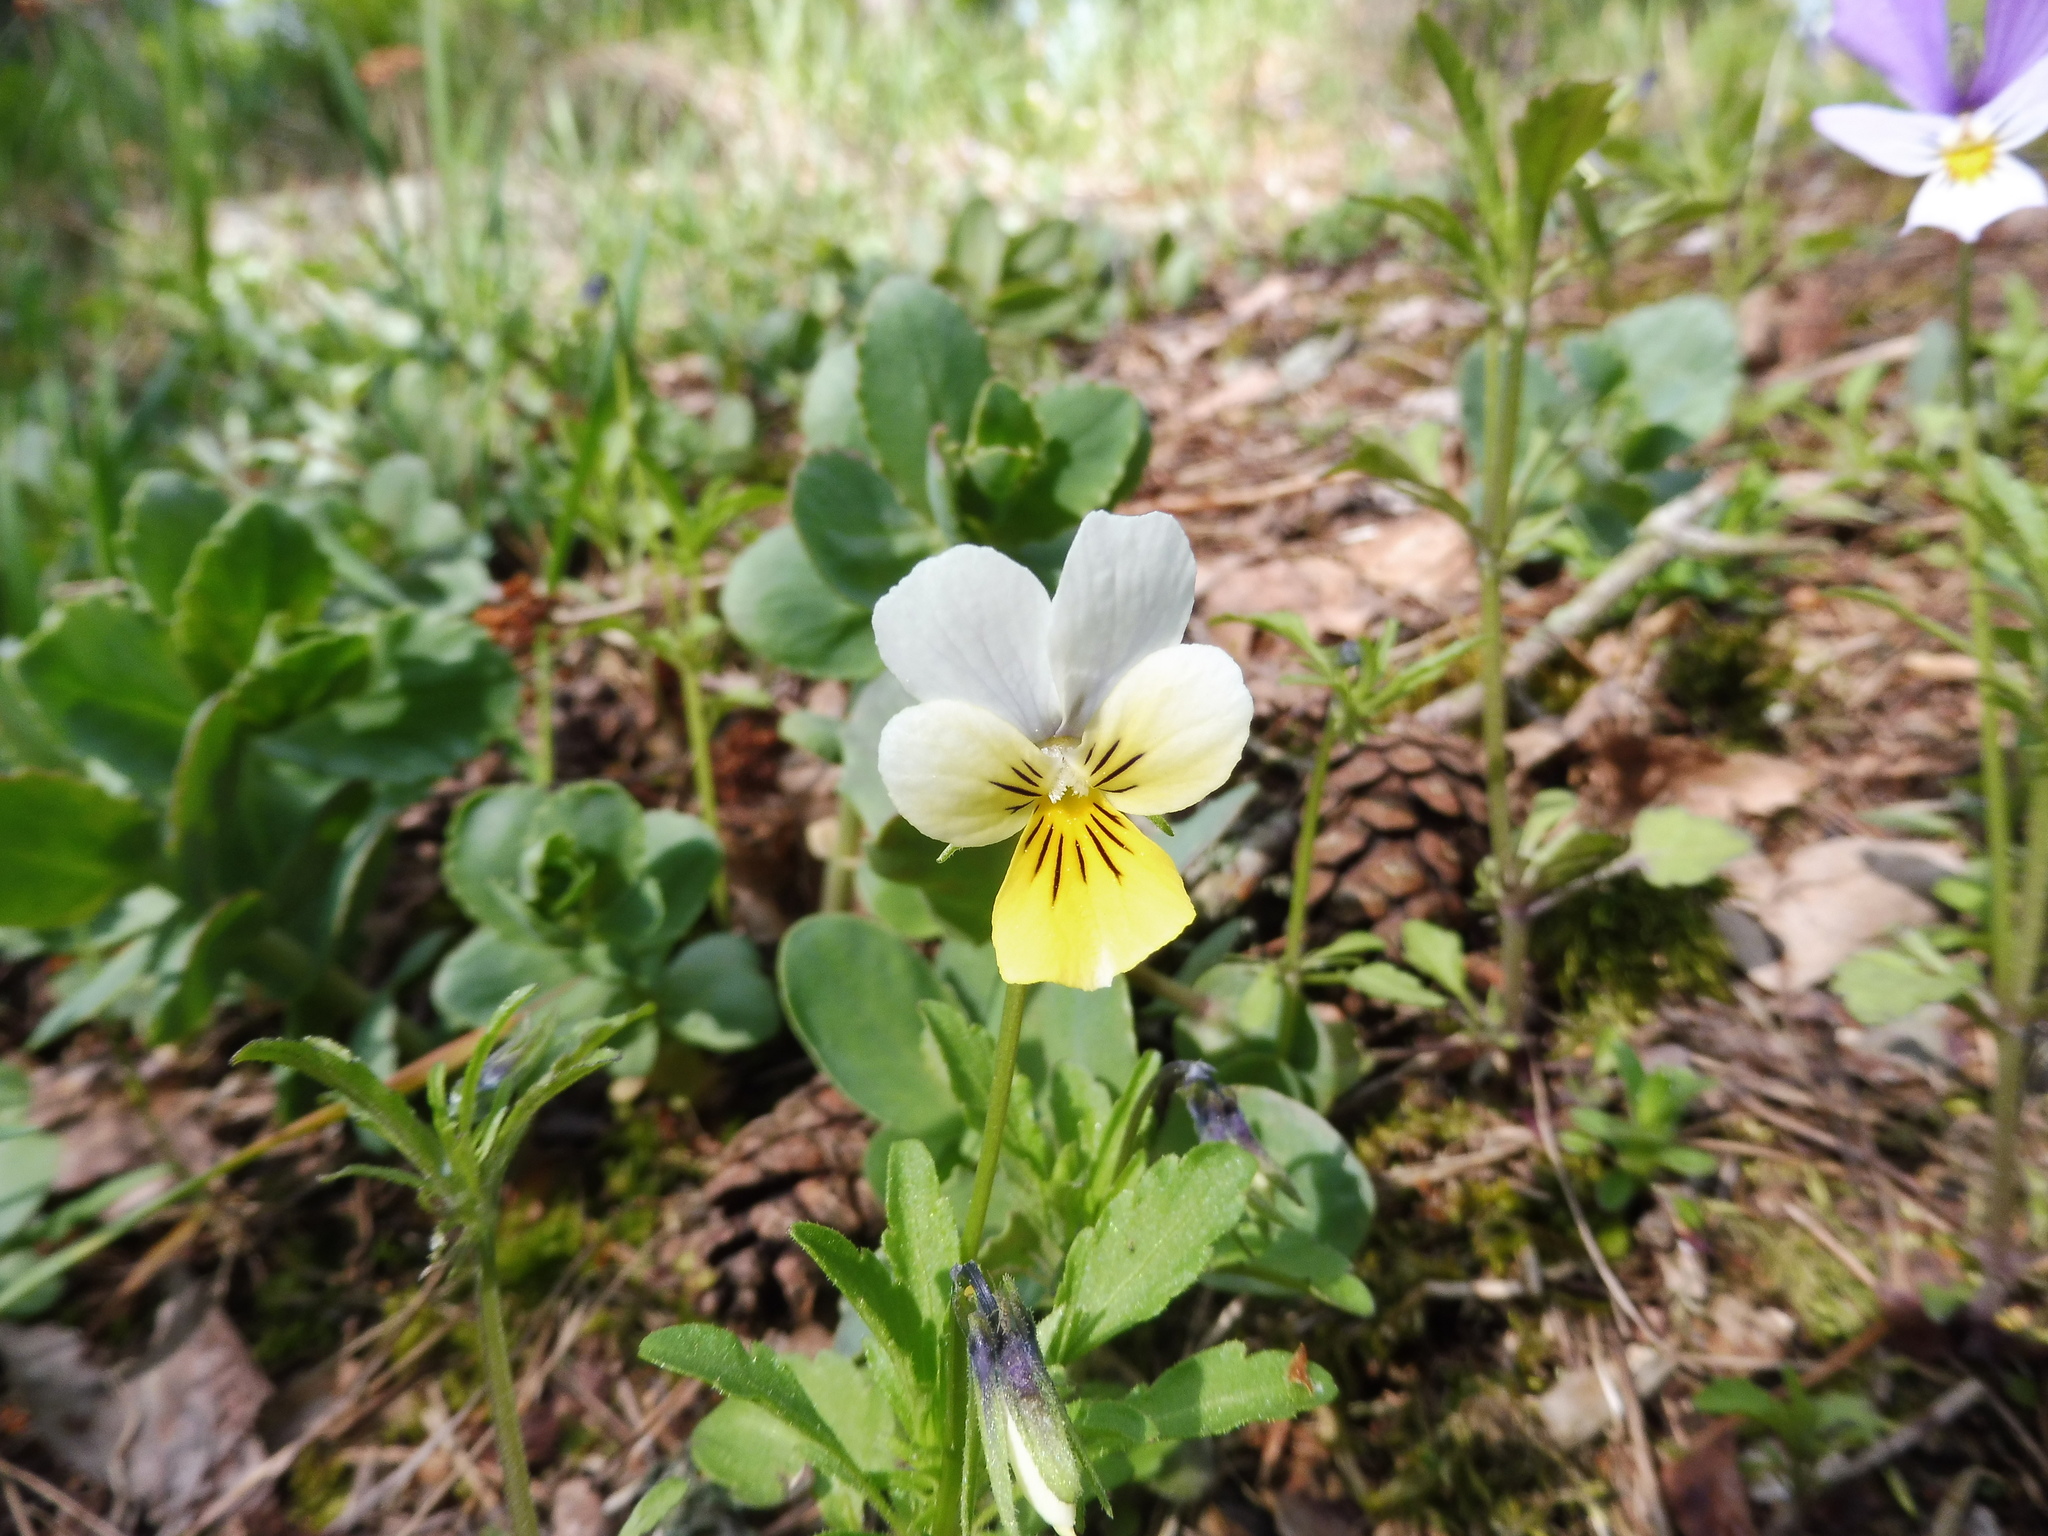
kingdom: Plantae
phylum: Tracheophyta
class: Magnoliopsida
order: Malpighiales
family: Violaceae
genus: Viola
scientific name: Viola tricolor
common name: Pansy
